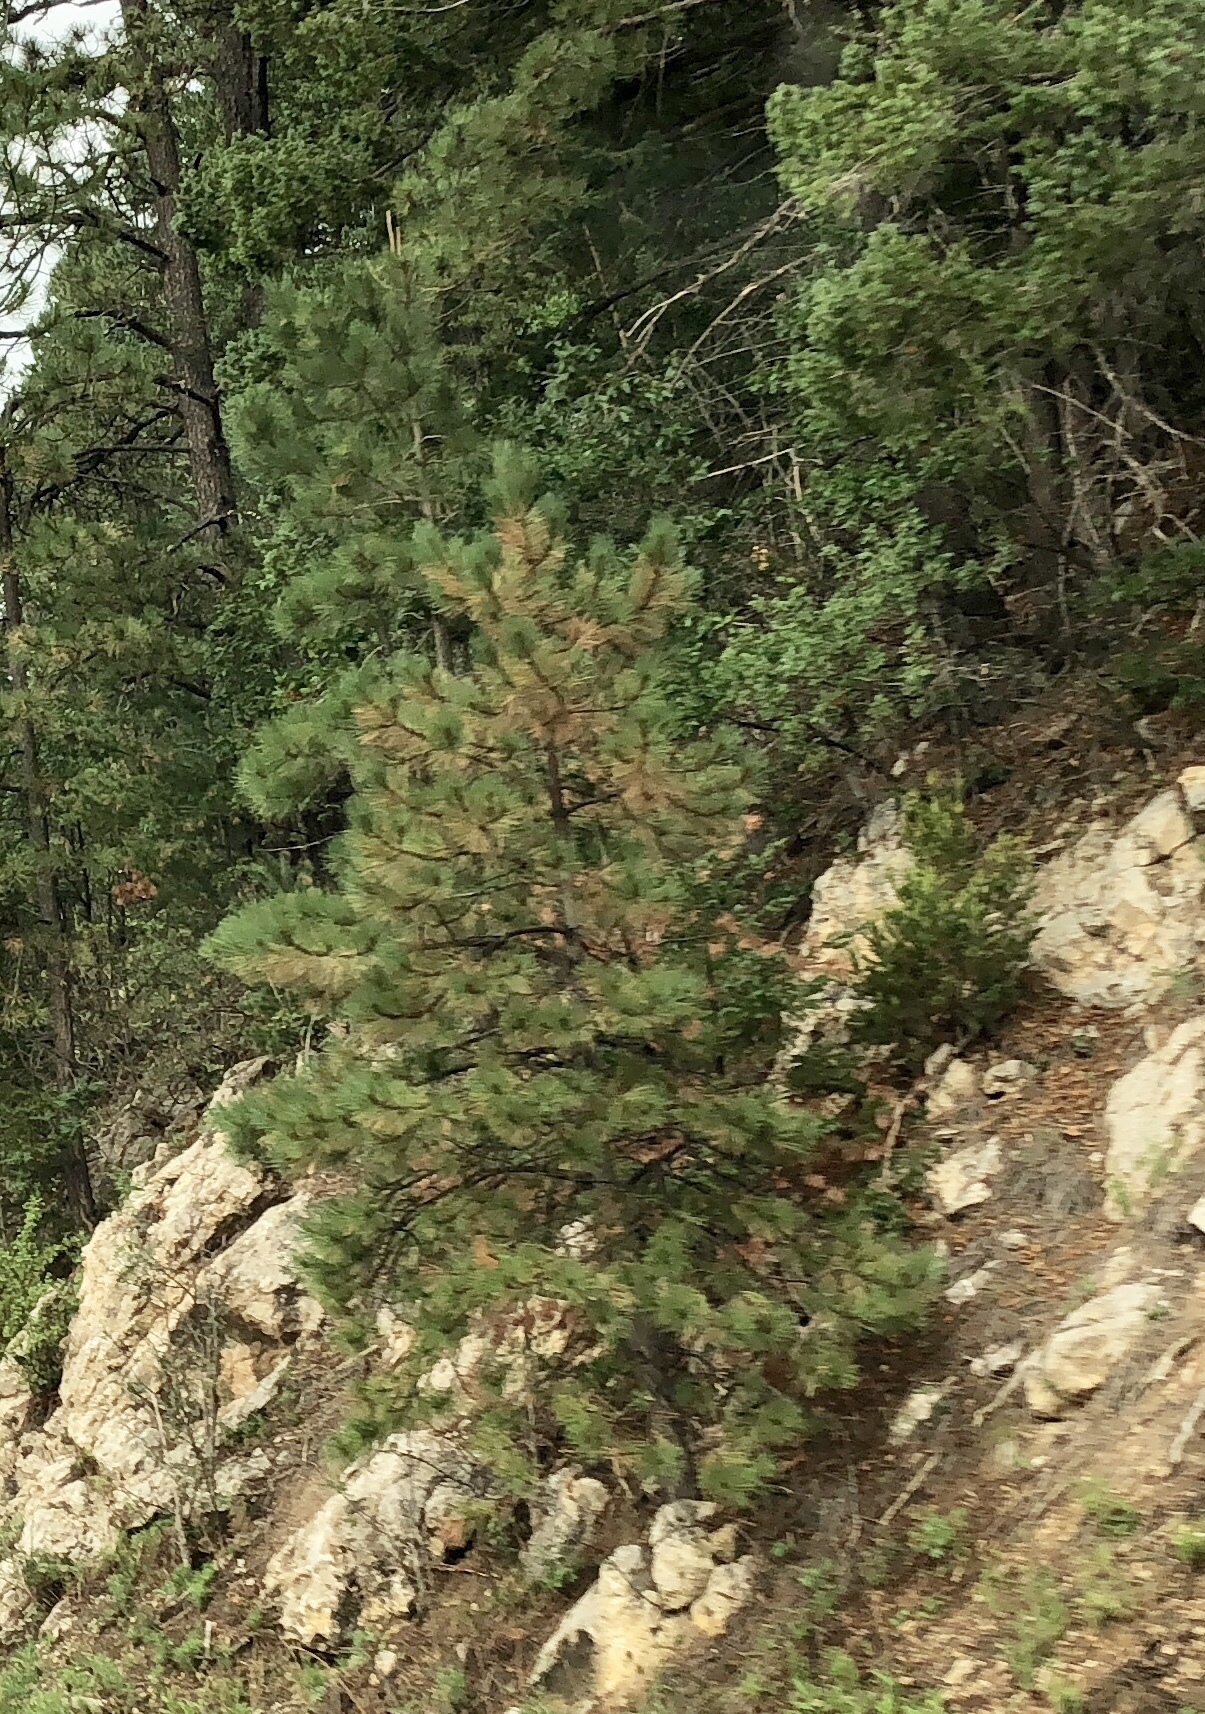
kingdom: Plantae
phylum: Tracheophyta
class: Pinopsida
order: Pinales
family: Pinaceae
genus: Pinus
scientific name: Pinus ponderosa
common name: Western yellow-pine
